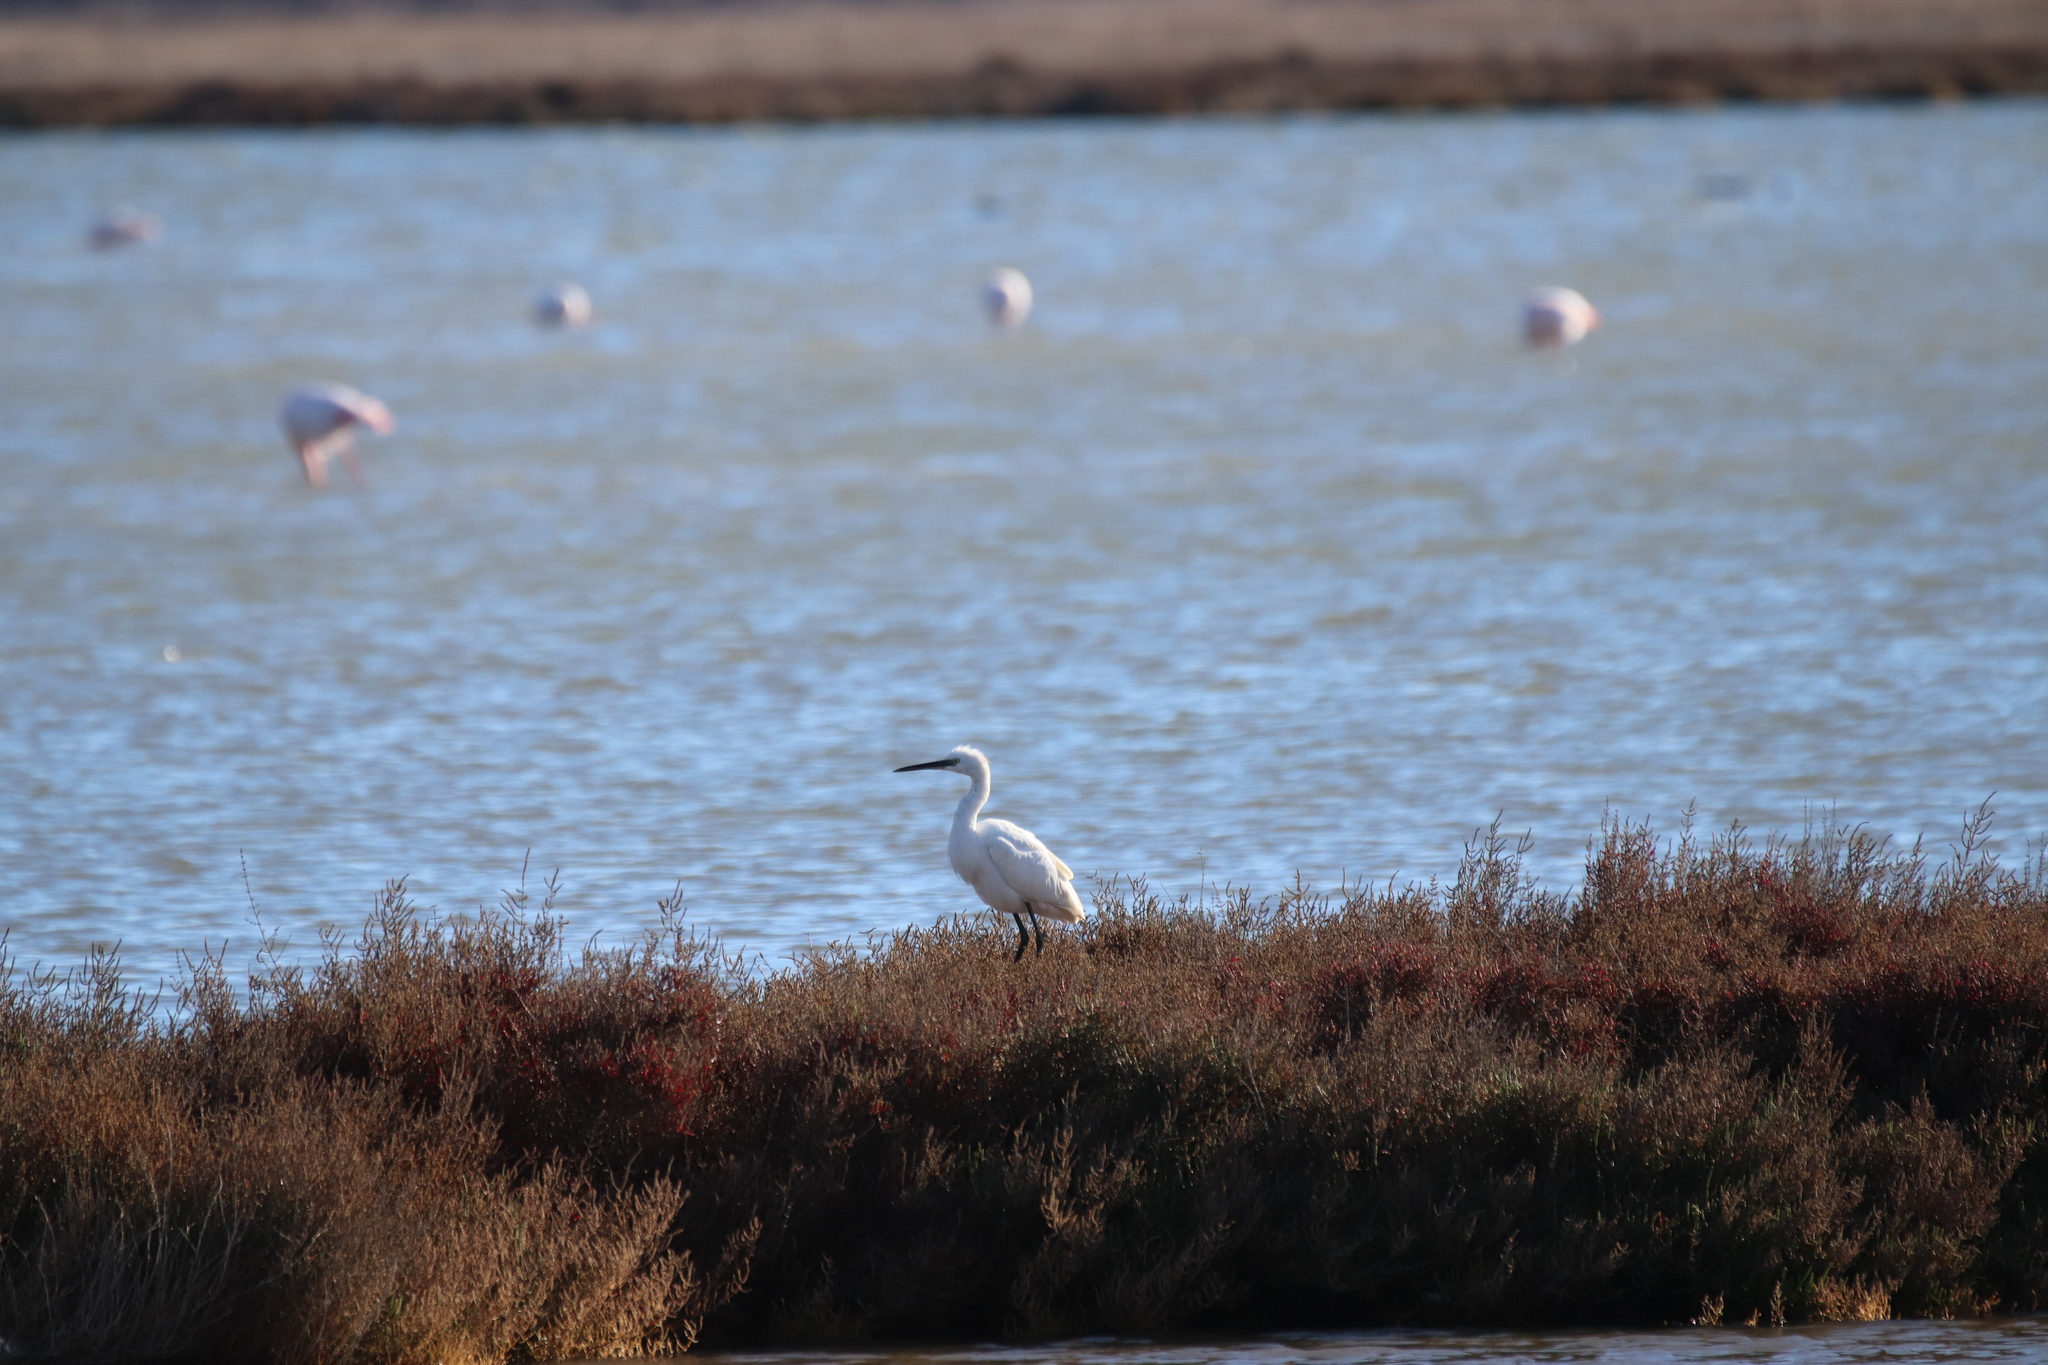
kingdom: Animalia
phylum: Chordata
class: Aves
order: Pelecaniformes
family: Ardeidae
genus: Egretta
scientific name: Egretta garzetta
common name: Little egret
